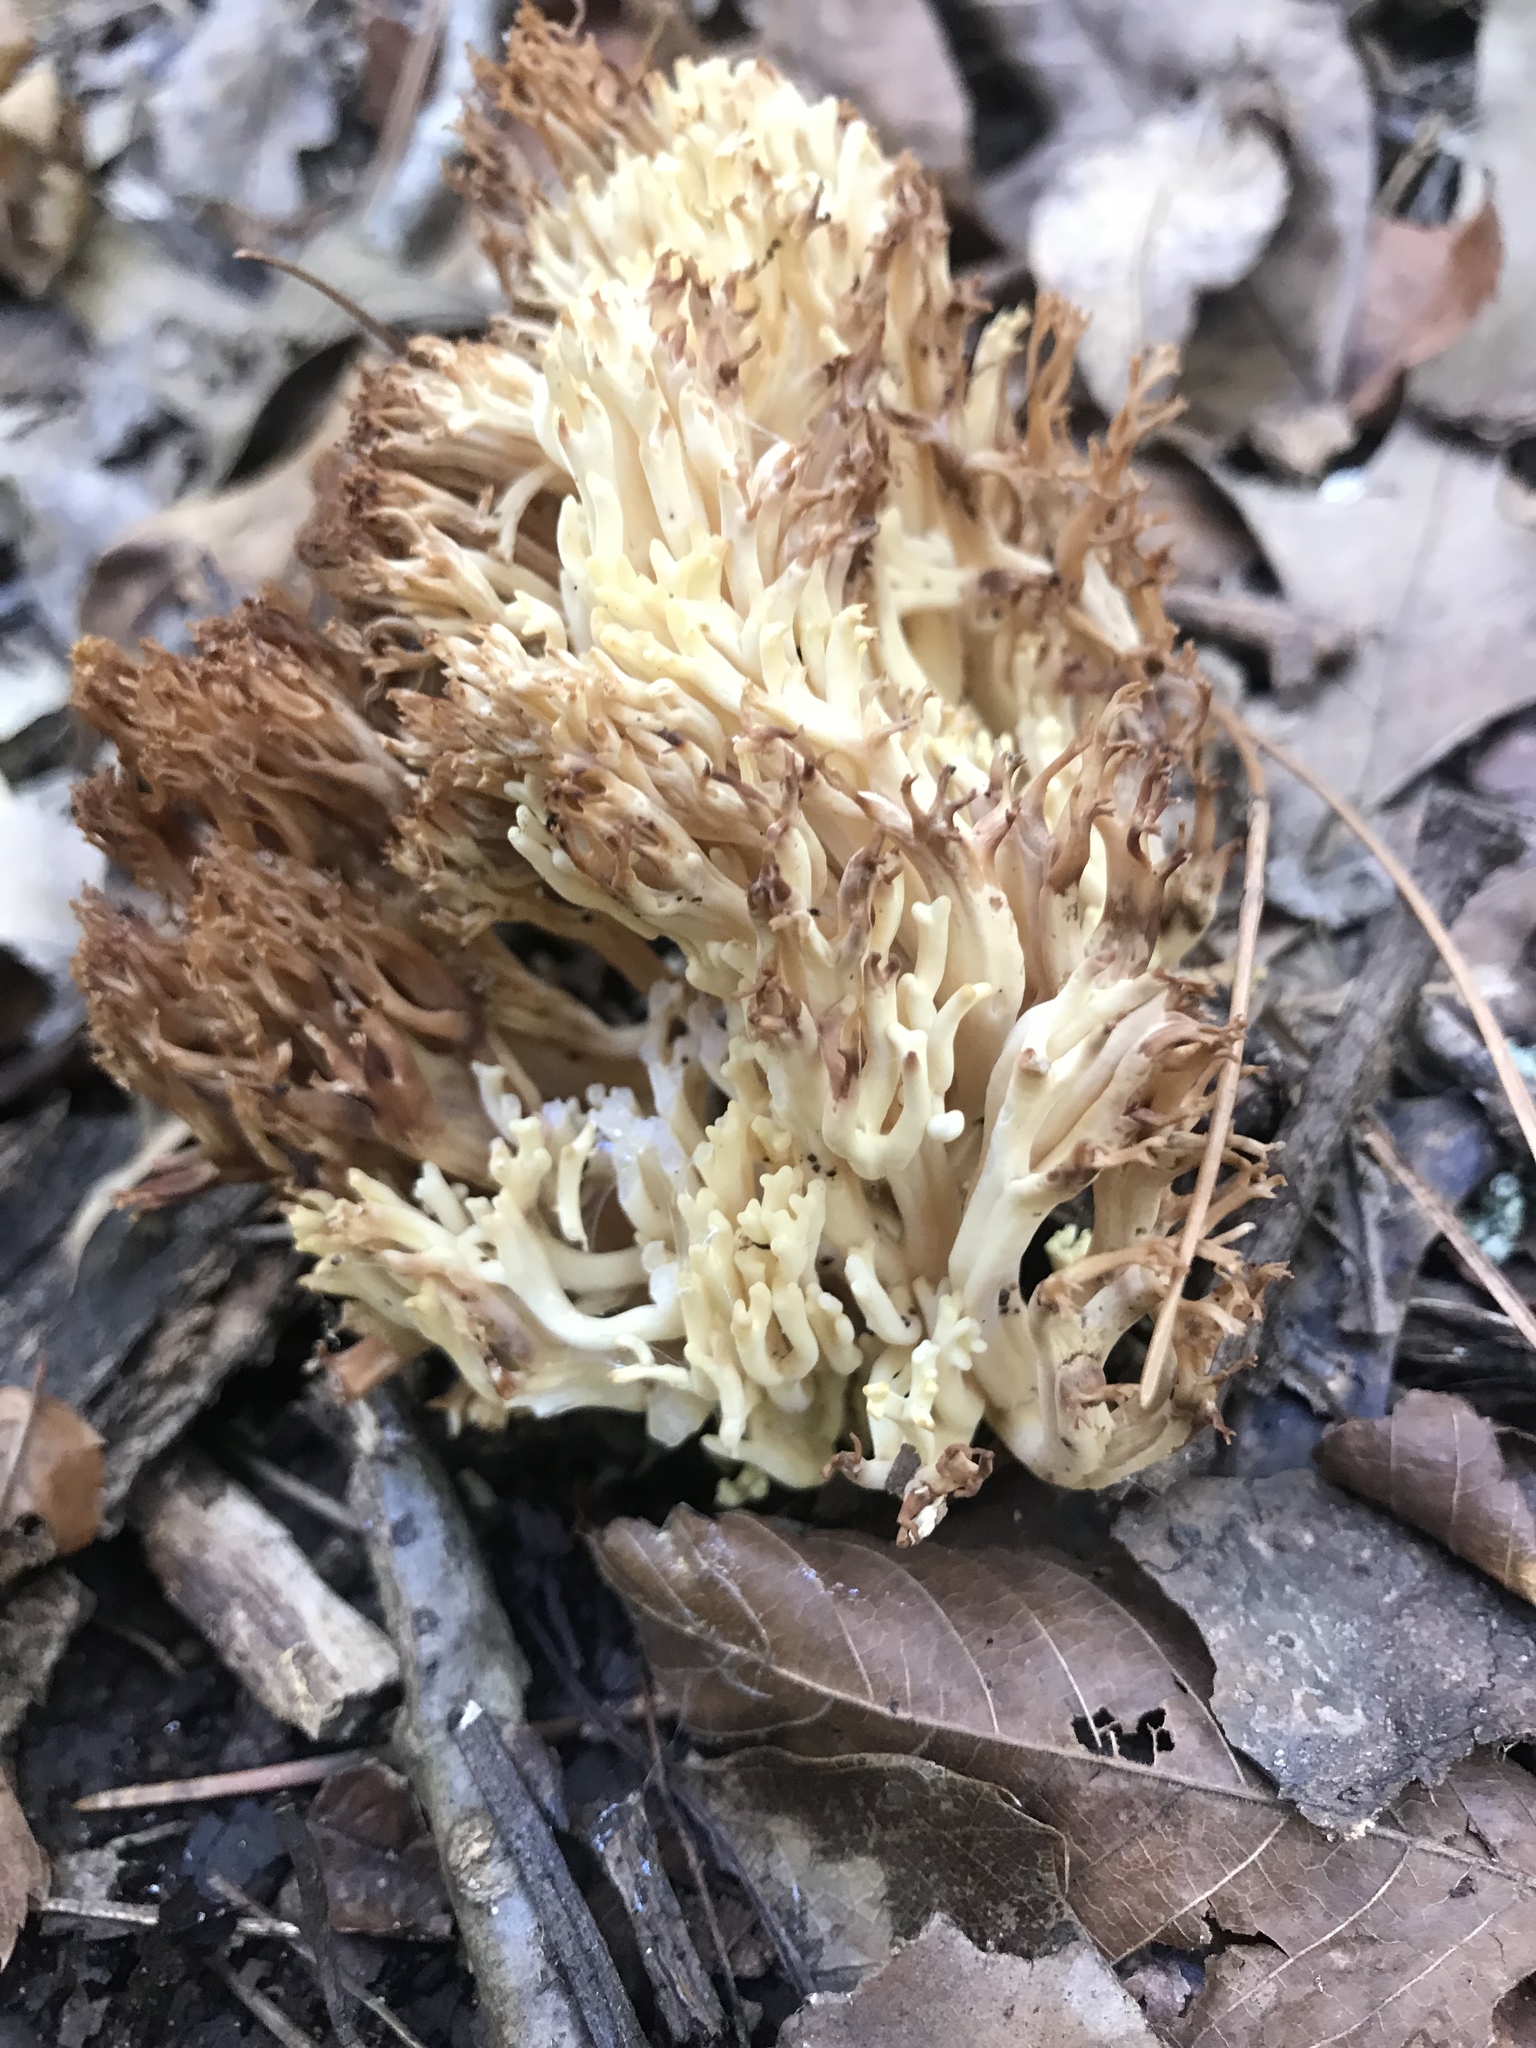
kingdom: Fungi
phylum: Basidiomycota
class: Agaricomycetes
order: Russulales
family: Auriscalpiaceae
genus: Artomyces
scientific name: Artomyces pyxidatus
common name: Crown-tipped coral fungus
